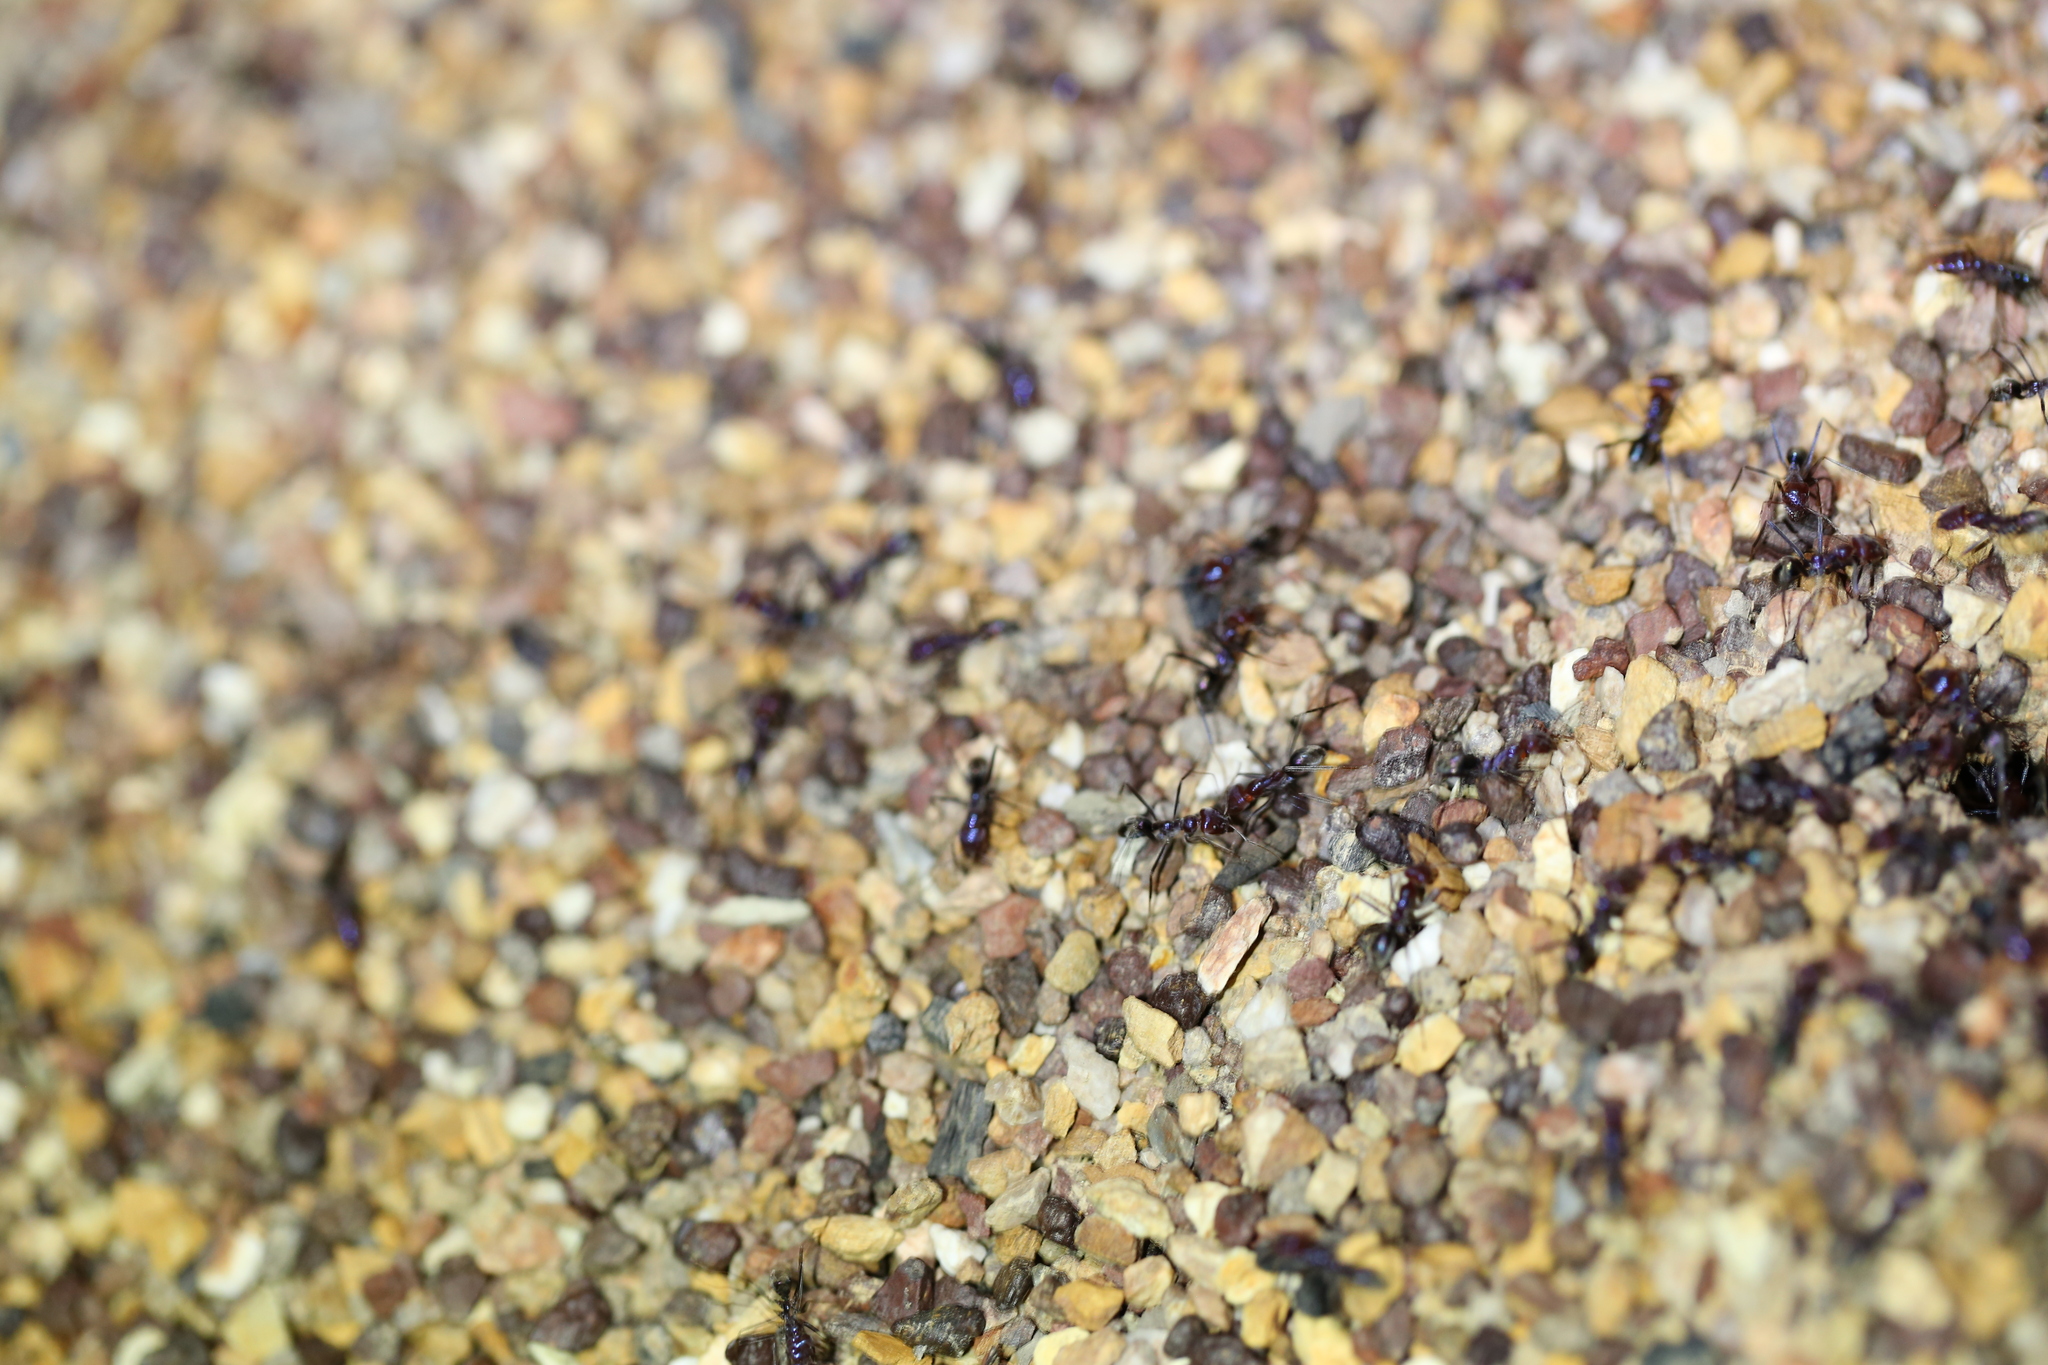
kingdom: Animalia
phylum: Arthropoda
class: Insecta
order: Hymenoptera
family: Formicidae
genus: Iridomyrmex
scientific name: Iridomyrmex purpureus
